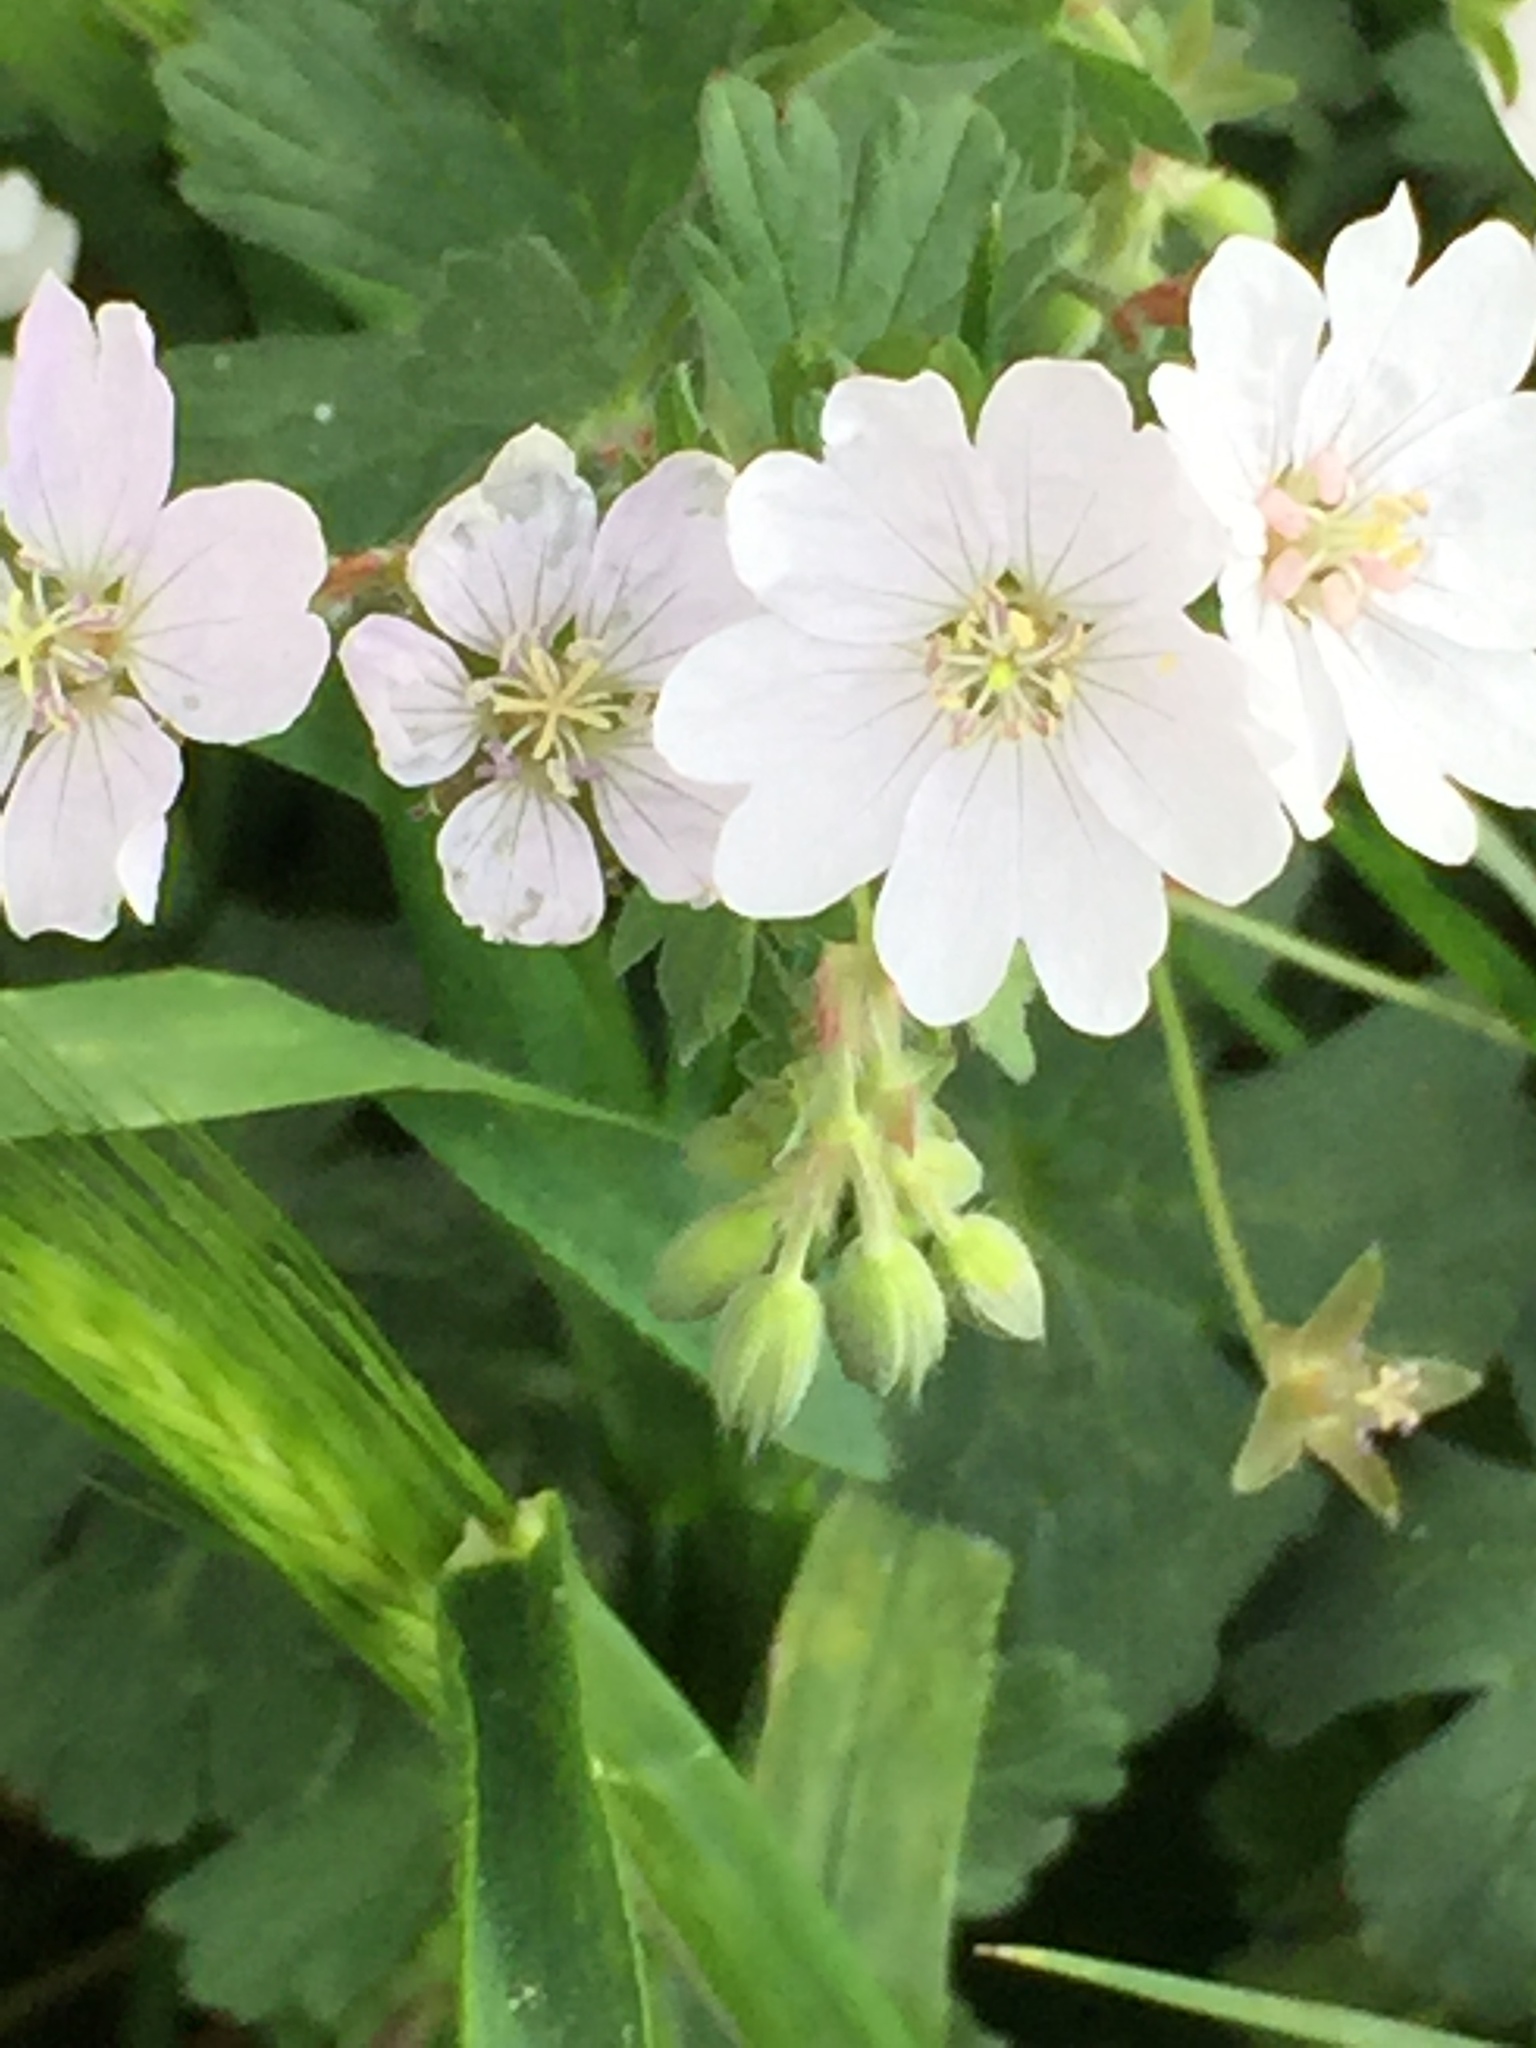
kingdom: Plantae
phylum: Tracheophyta
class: Magnoliopsida
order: Geraniales
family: Geraniaceae
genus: Geranium
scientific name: Geranium pyrenaicum
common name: Hedgerow crane's-bill
